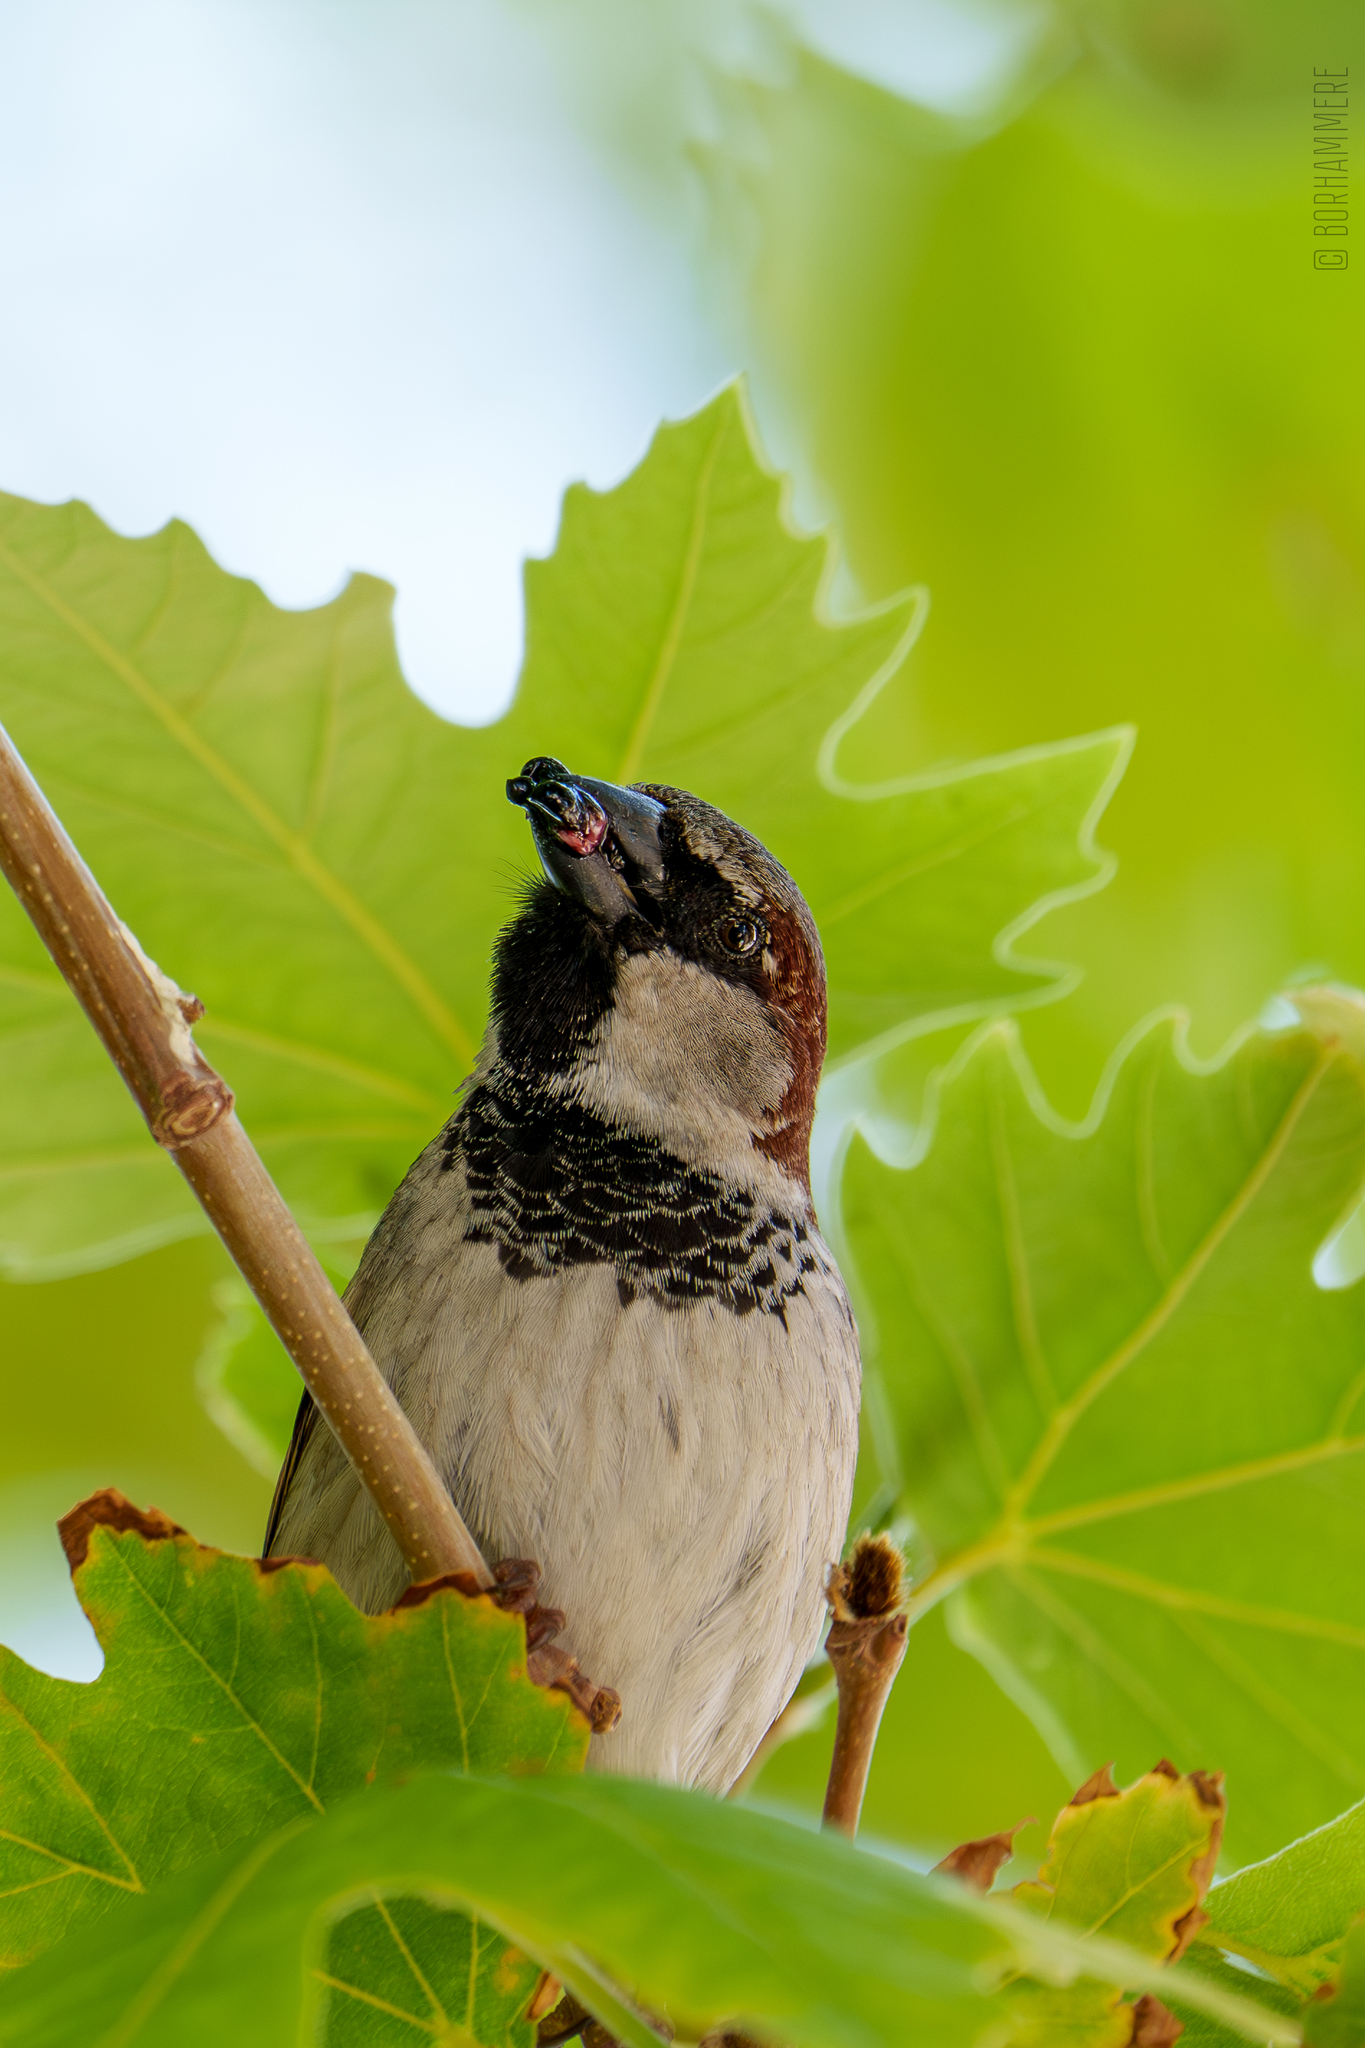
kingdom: Animalia
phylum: Chordata
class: Aves
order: Passeriformes
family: Passeridae
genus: Passer
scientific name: Passer domesticus
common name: House sparrow
